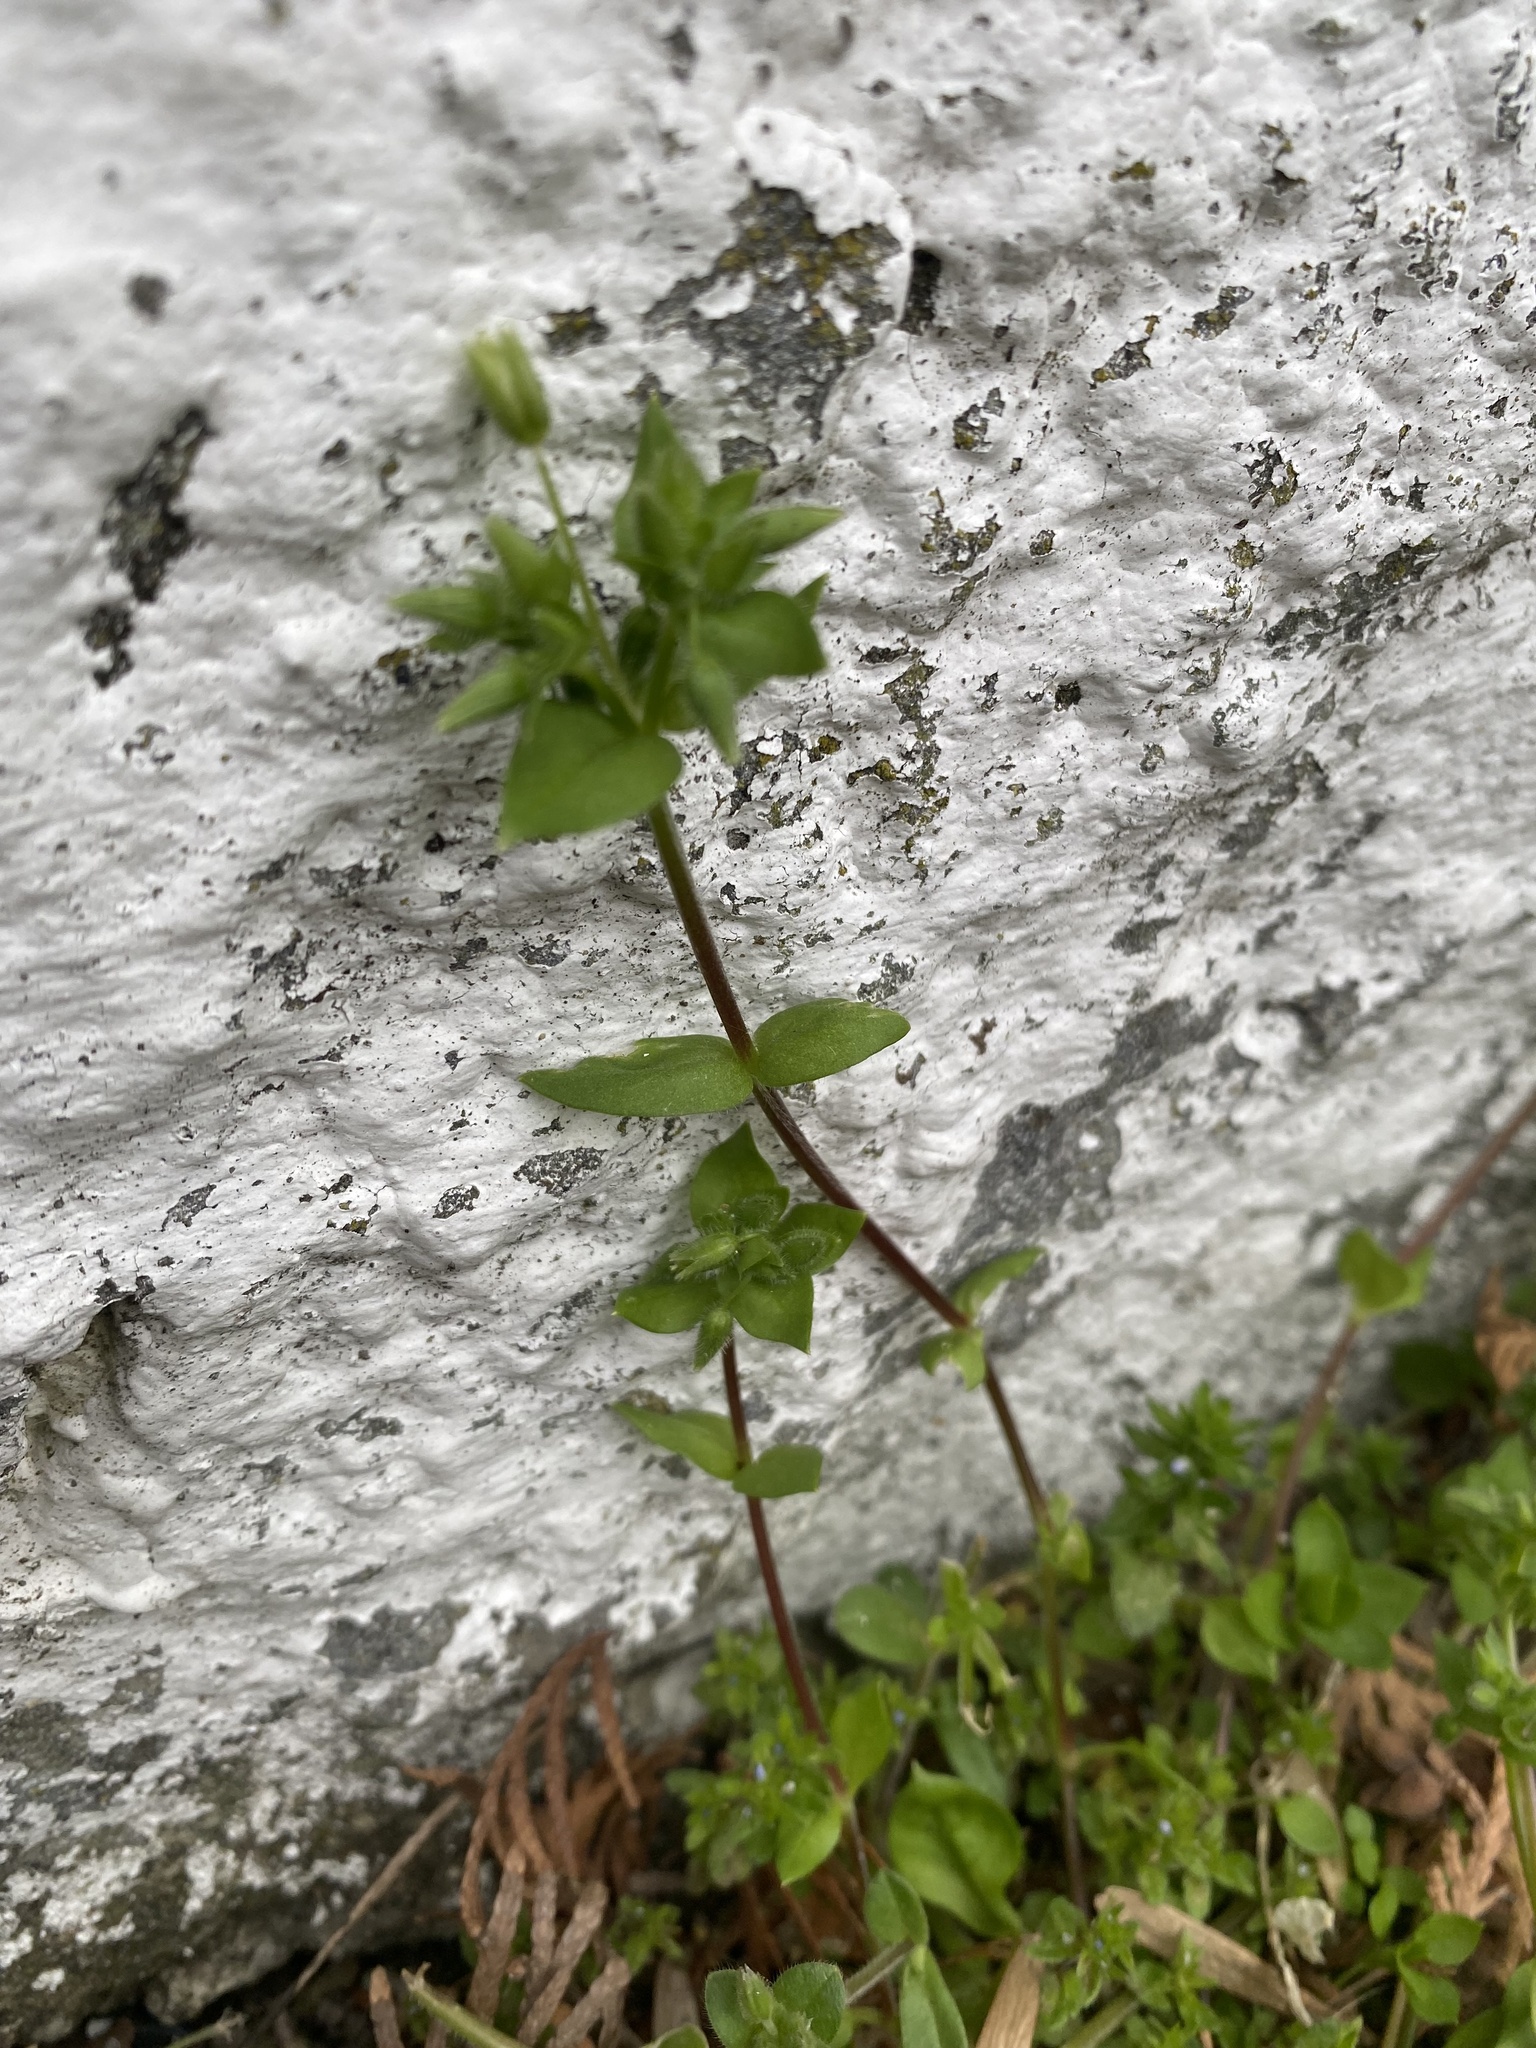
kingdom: Plantae
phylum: Tracheophyta
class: Magnoliopsida
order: Caryophyllales
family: Caryophyllaceae
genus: Stellaria
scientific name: Stellaria media
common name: Common chickweed
